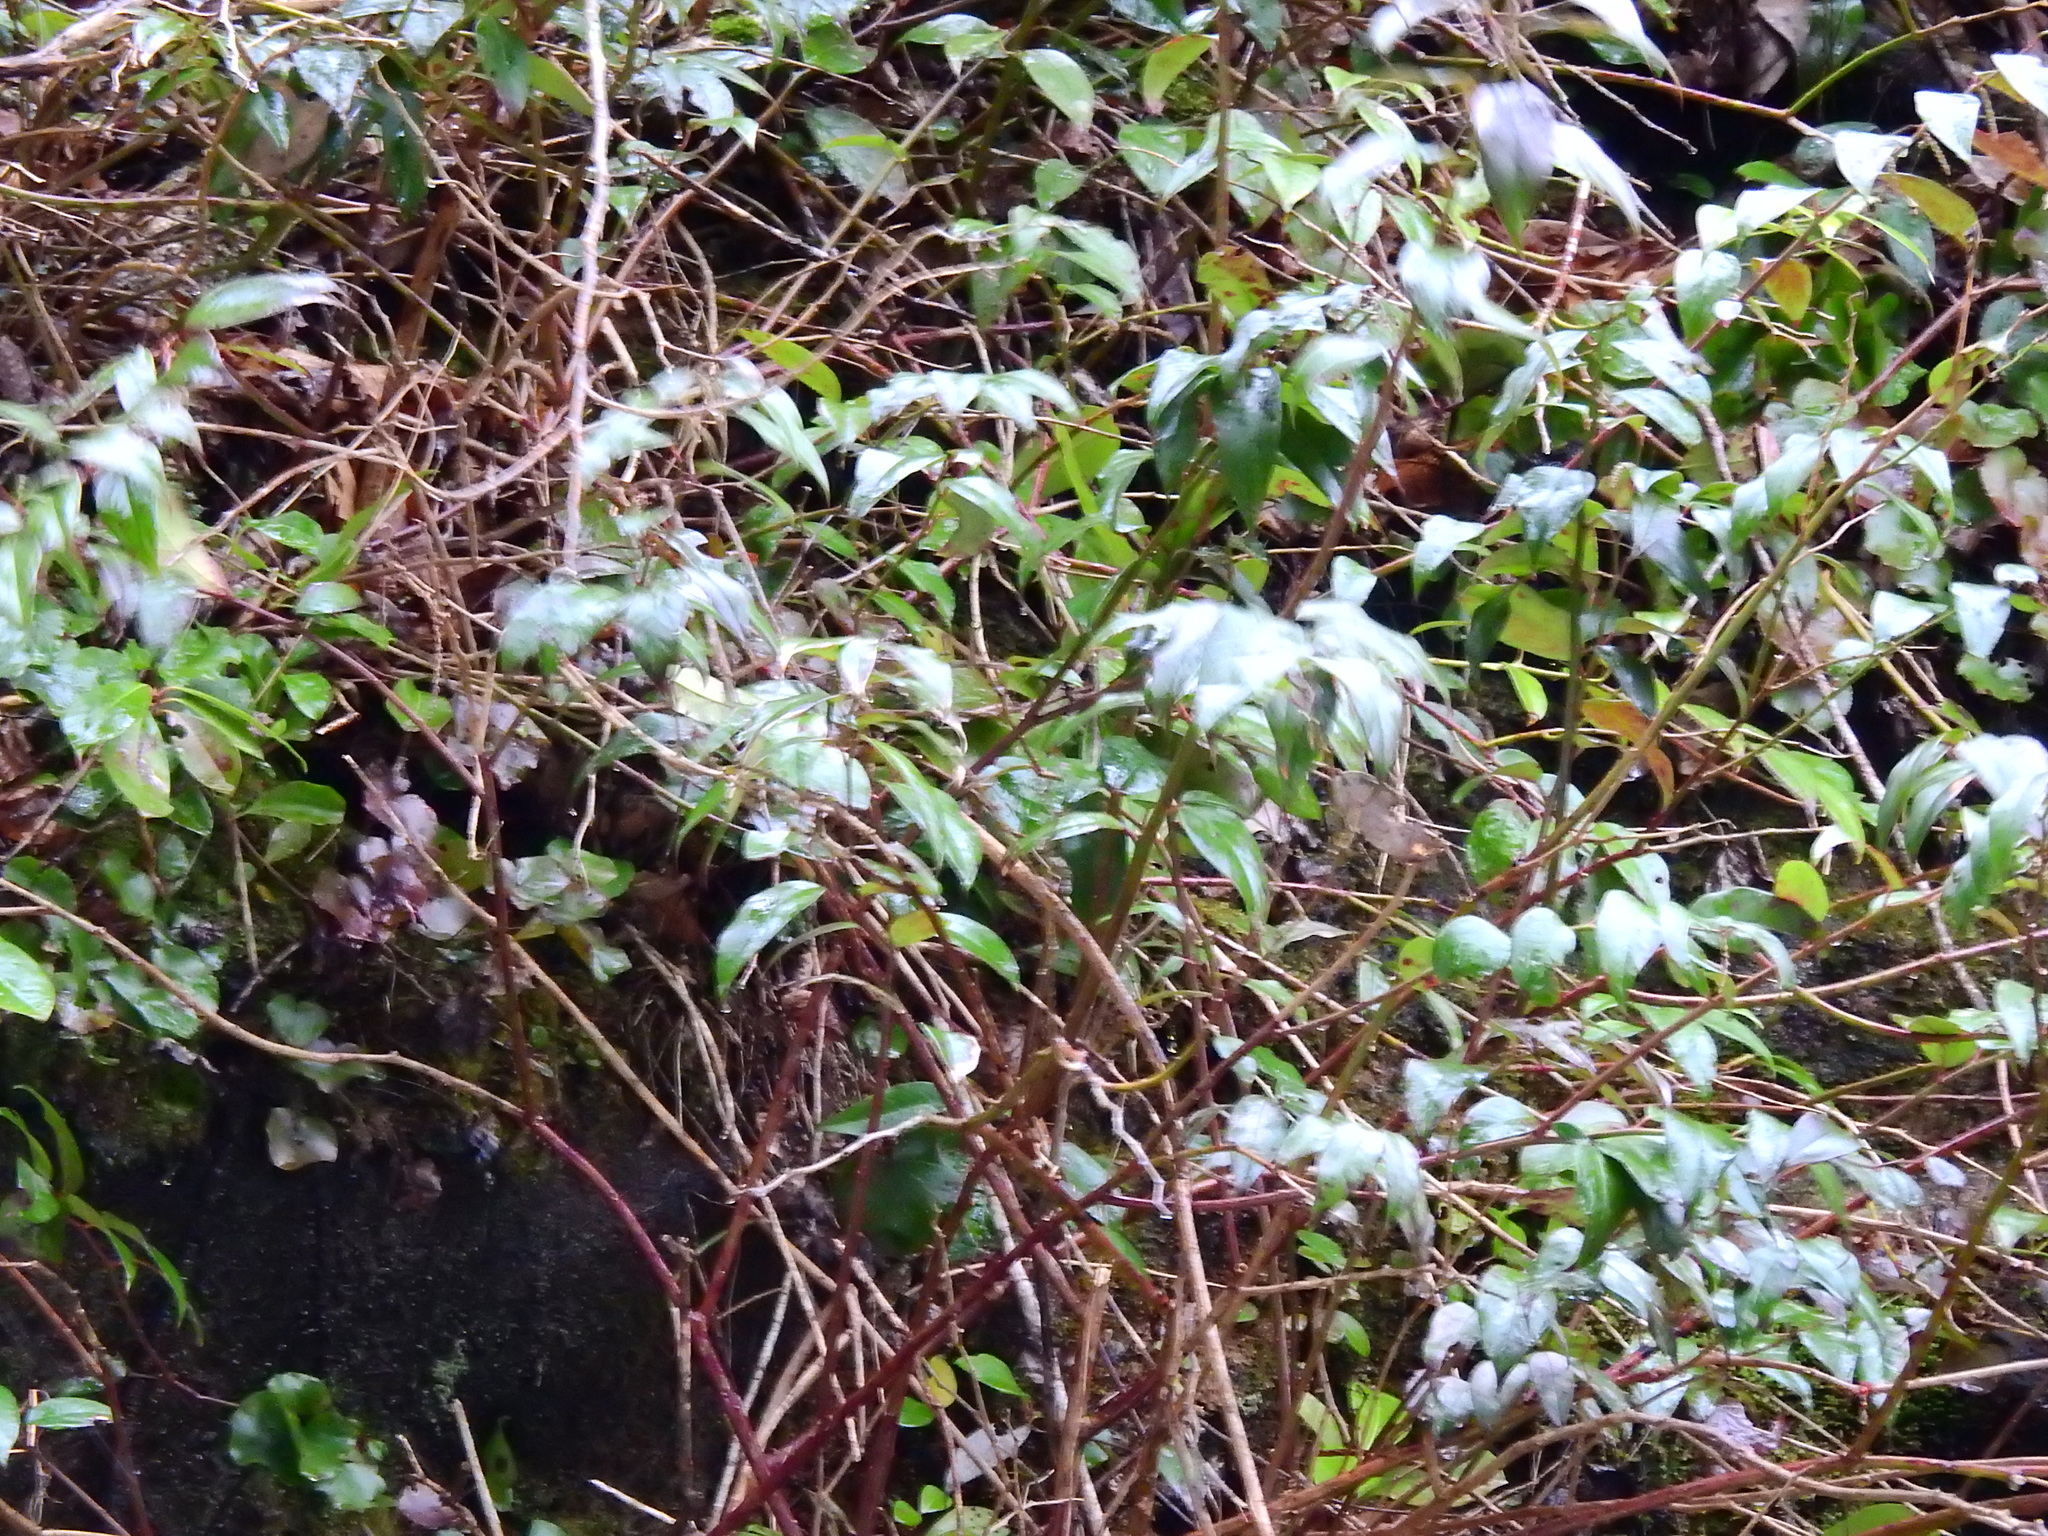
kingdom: Plantae
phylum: Tracheophyta
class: Magnoliopsida
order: Ericales
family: Ericaceae
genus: Leucothoe
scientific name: Leucothoe fontanesiana
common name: Fetterbush
